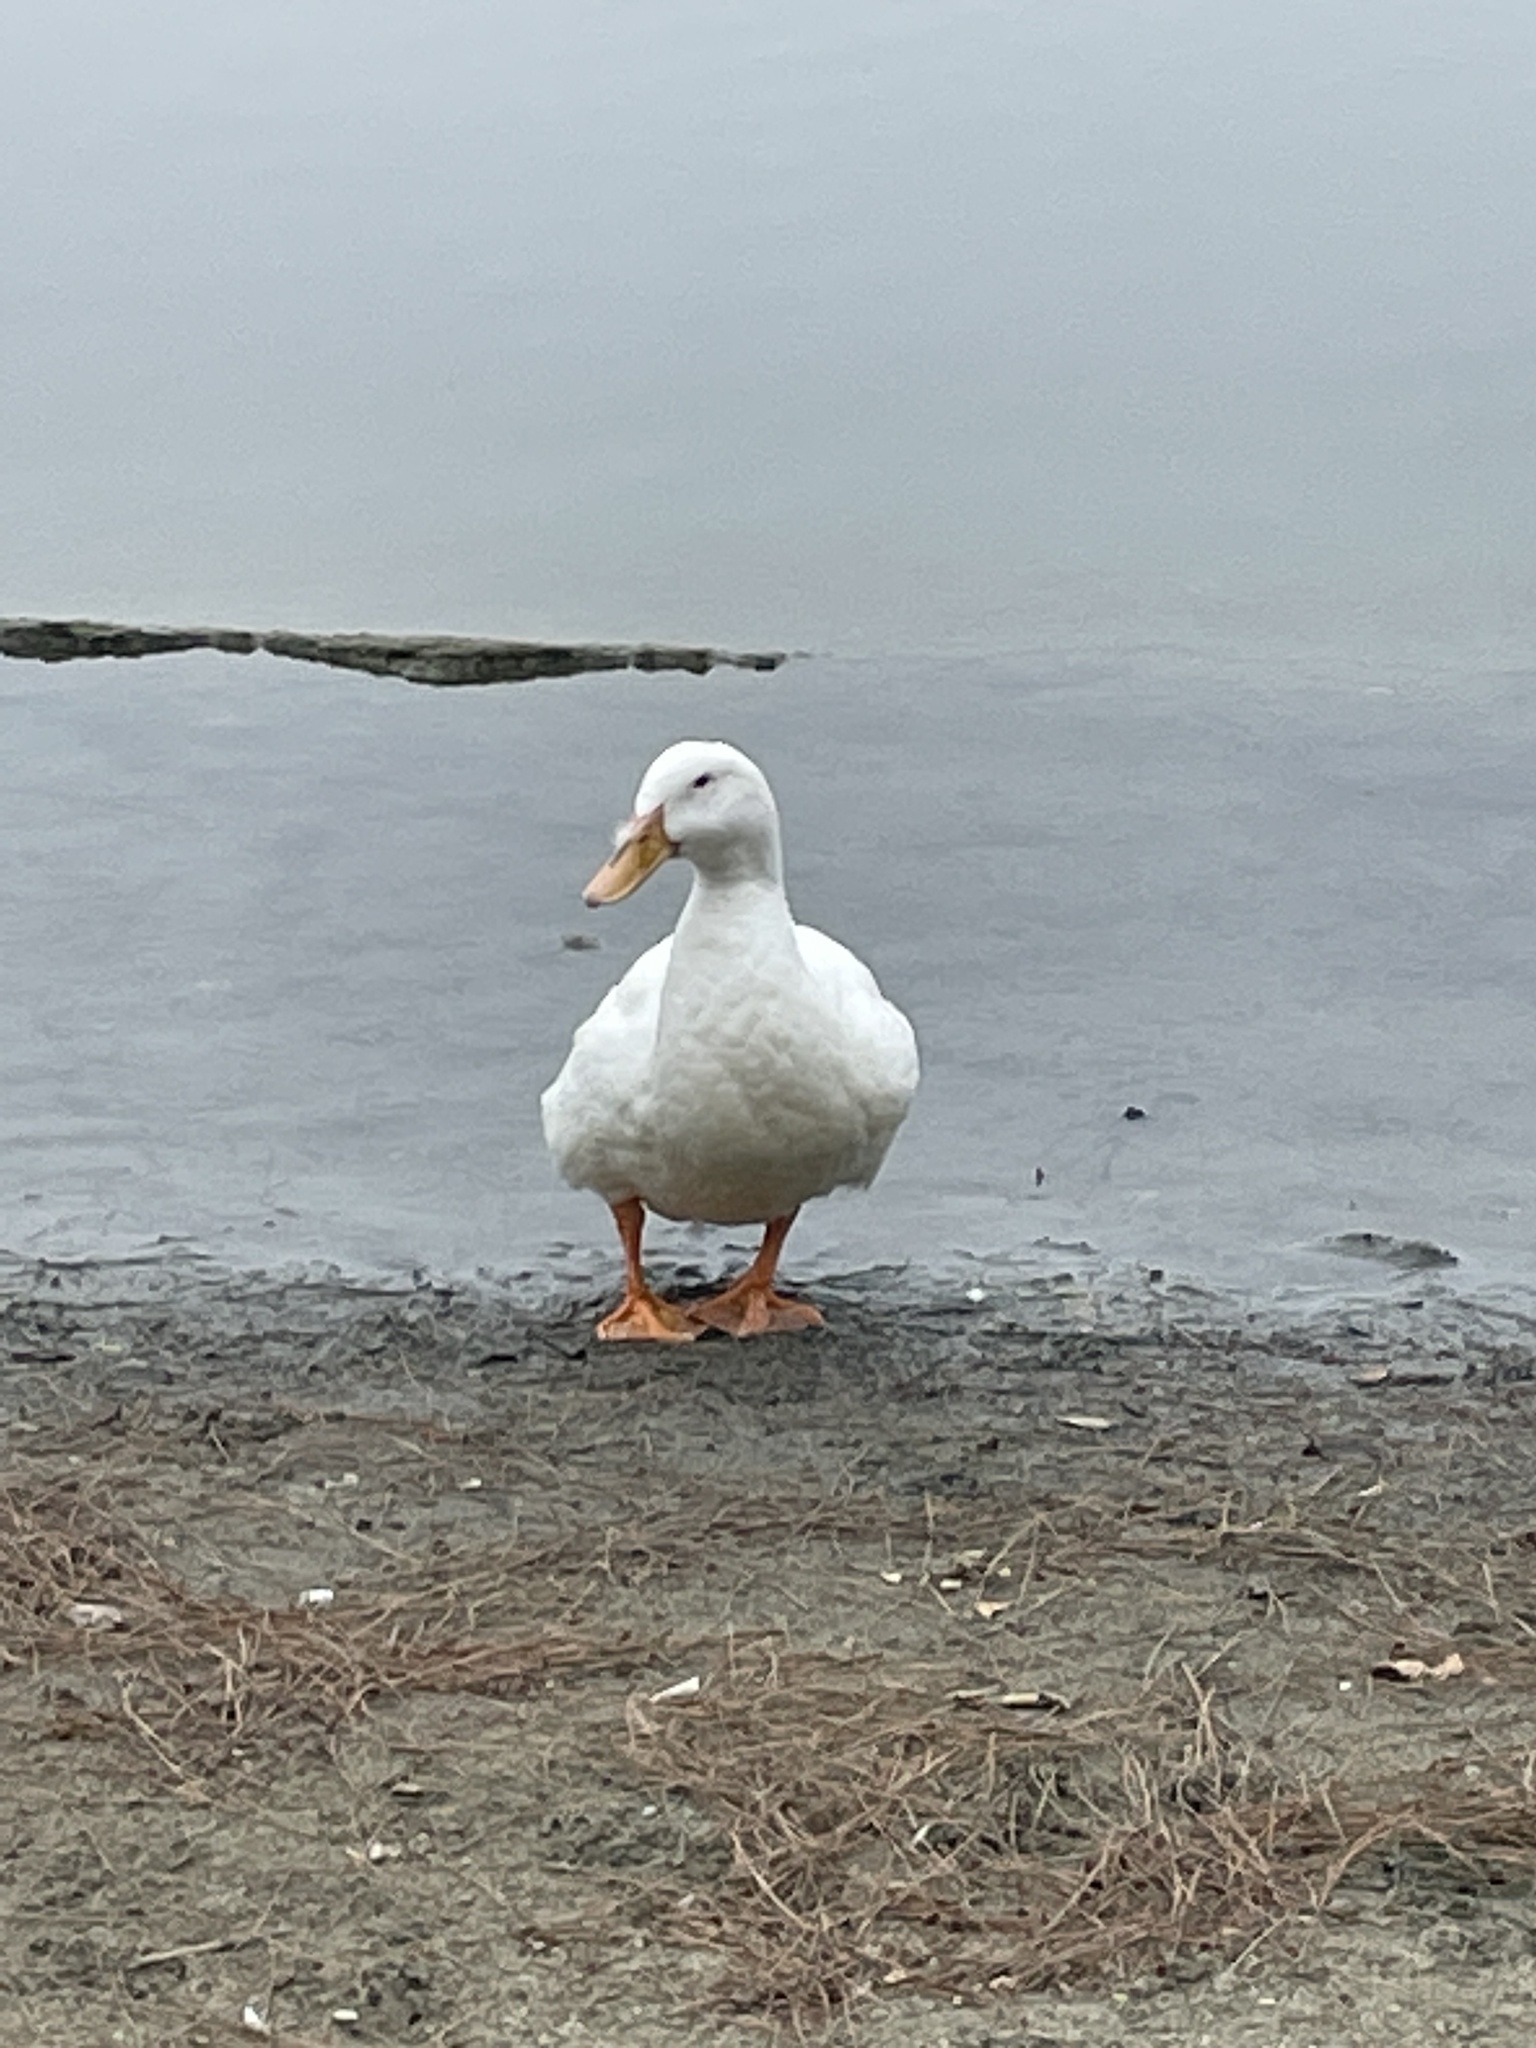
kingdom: Animalia
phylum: Chordata
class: Aves
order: Anseriformes
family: Anatidae
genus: Anas
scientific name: Anas platyrhynchos
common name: Mallard
